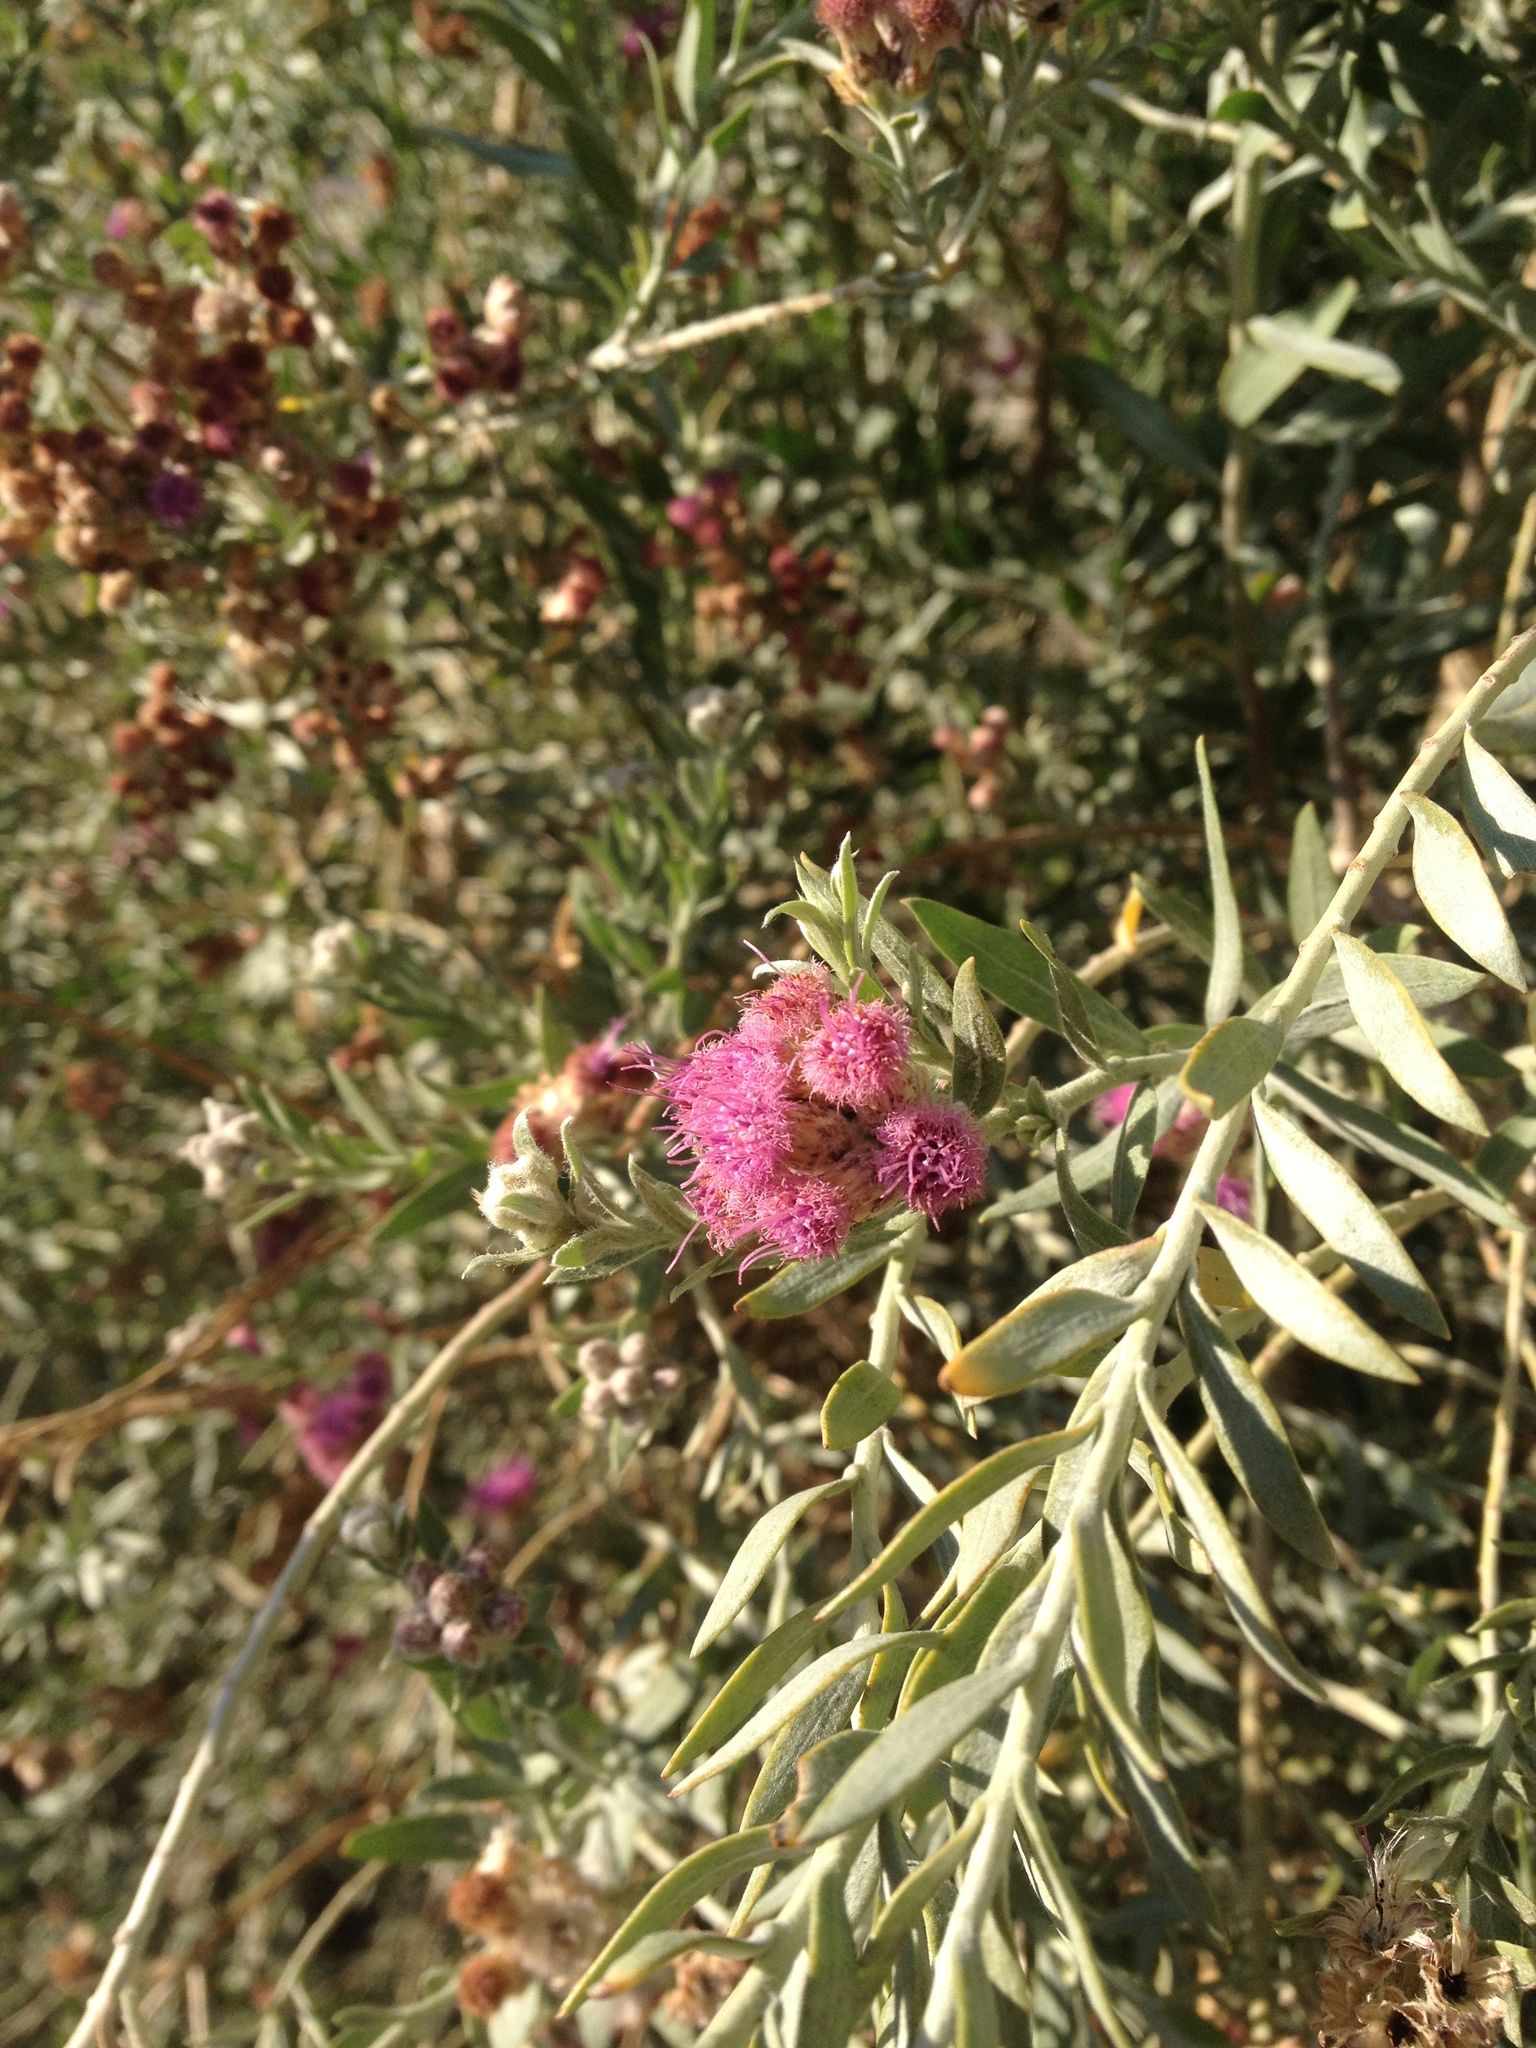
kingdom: Plantae
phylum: Tracheophyta
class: Magnoliopsida
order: Asterales
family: Asteraceae
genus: Pluchea
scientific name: Pluchea sericea
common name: Arrow-weed
